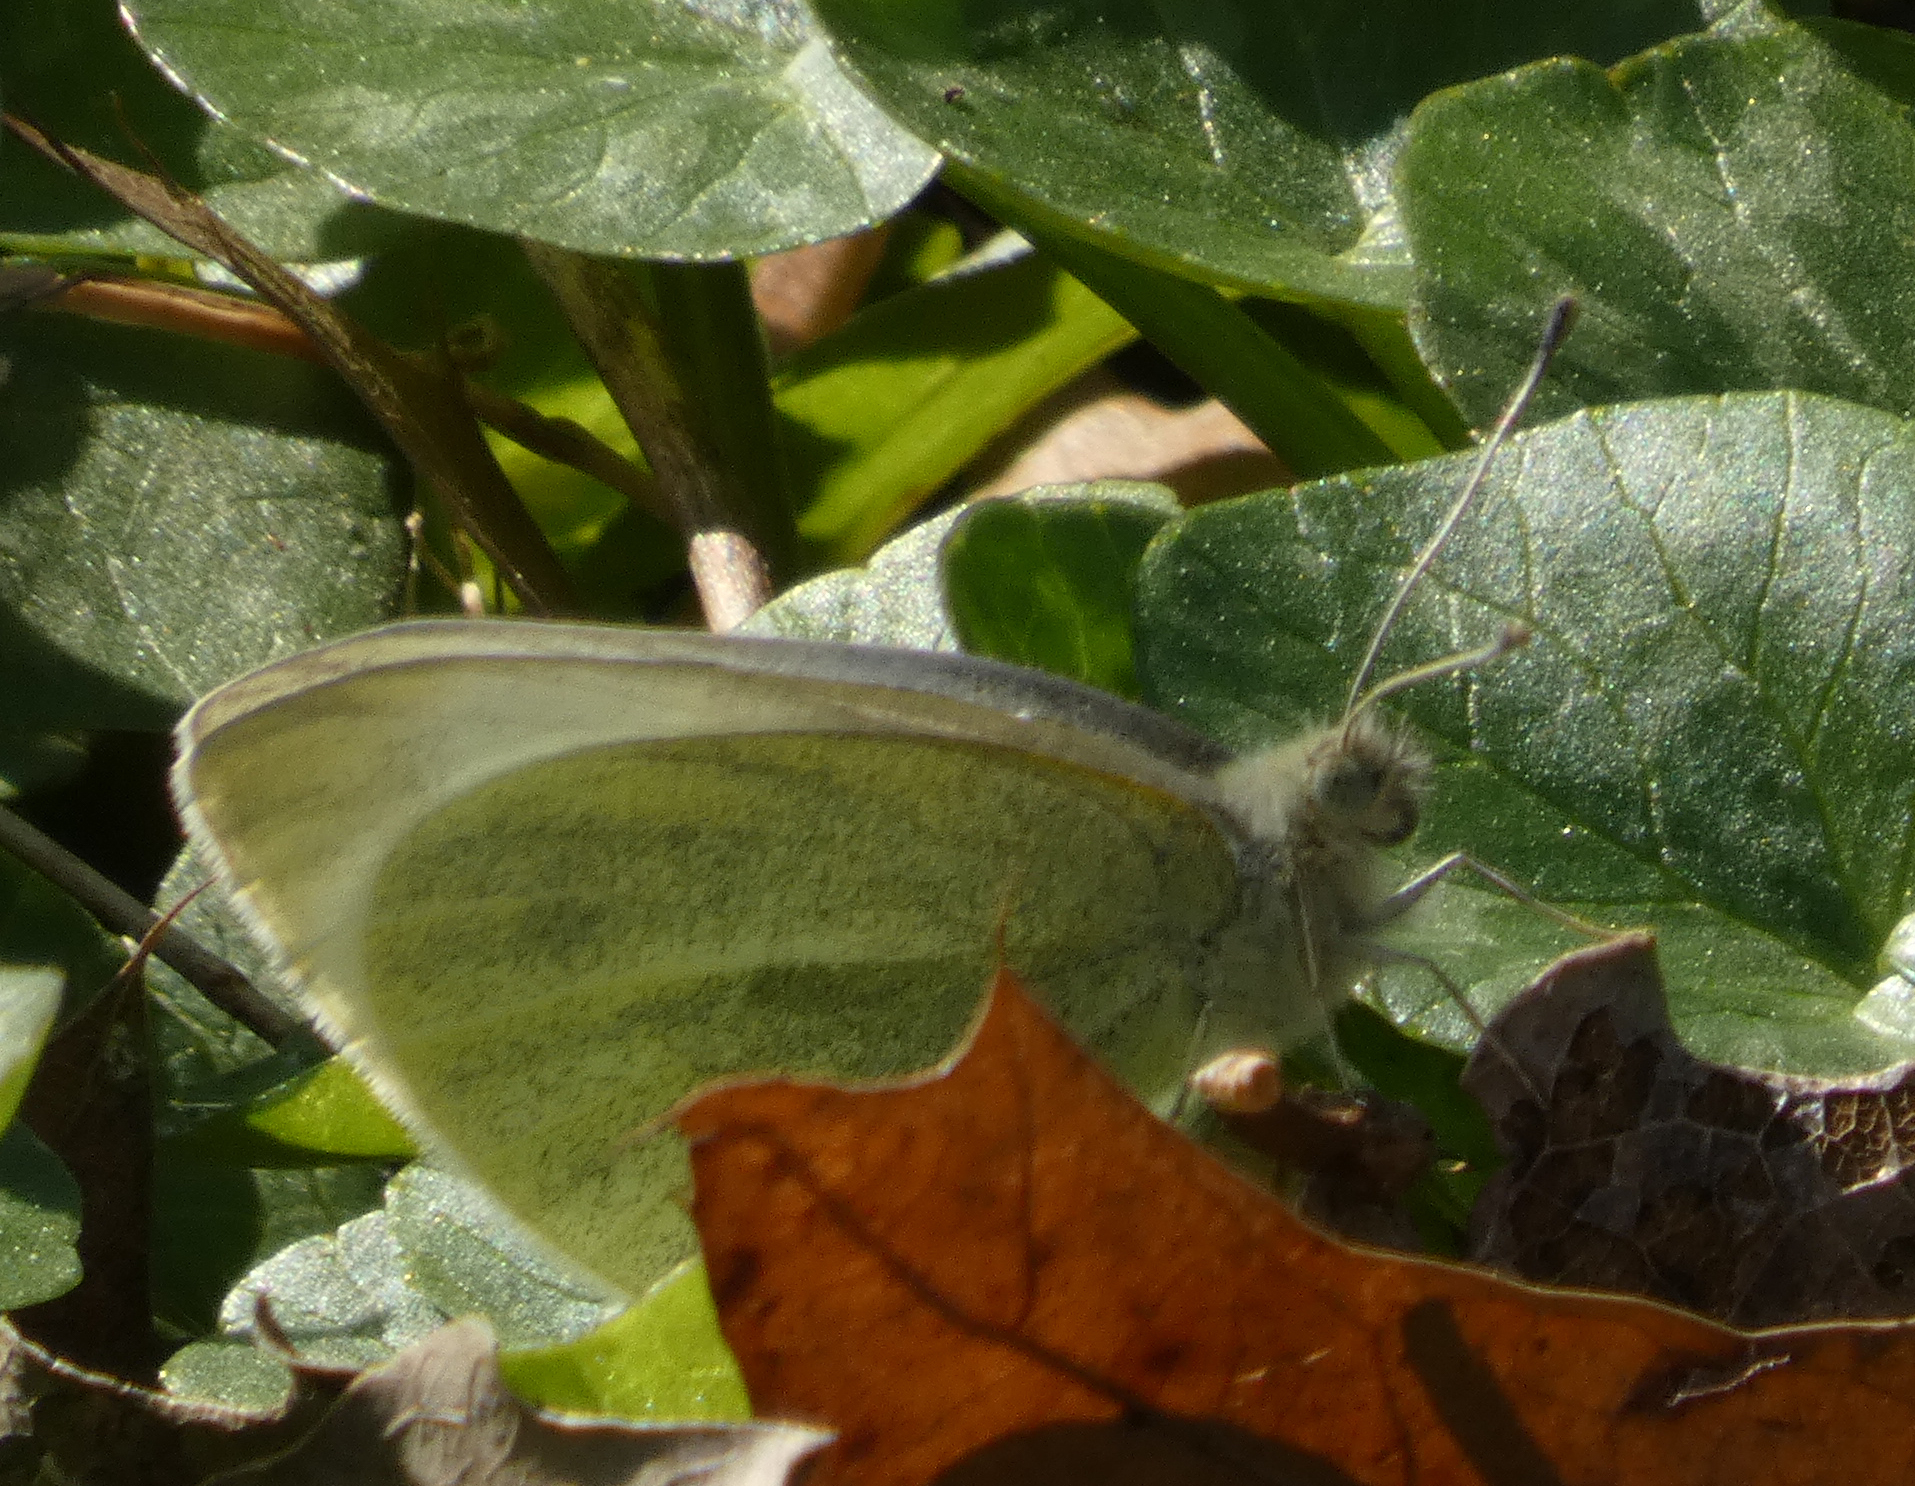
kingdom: Animalia
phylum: Arthropoda
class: Insecta
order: Lepidoptera
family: Pieridae
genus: Pieris
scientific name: Pieris rapae
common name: Small white
